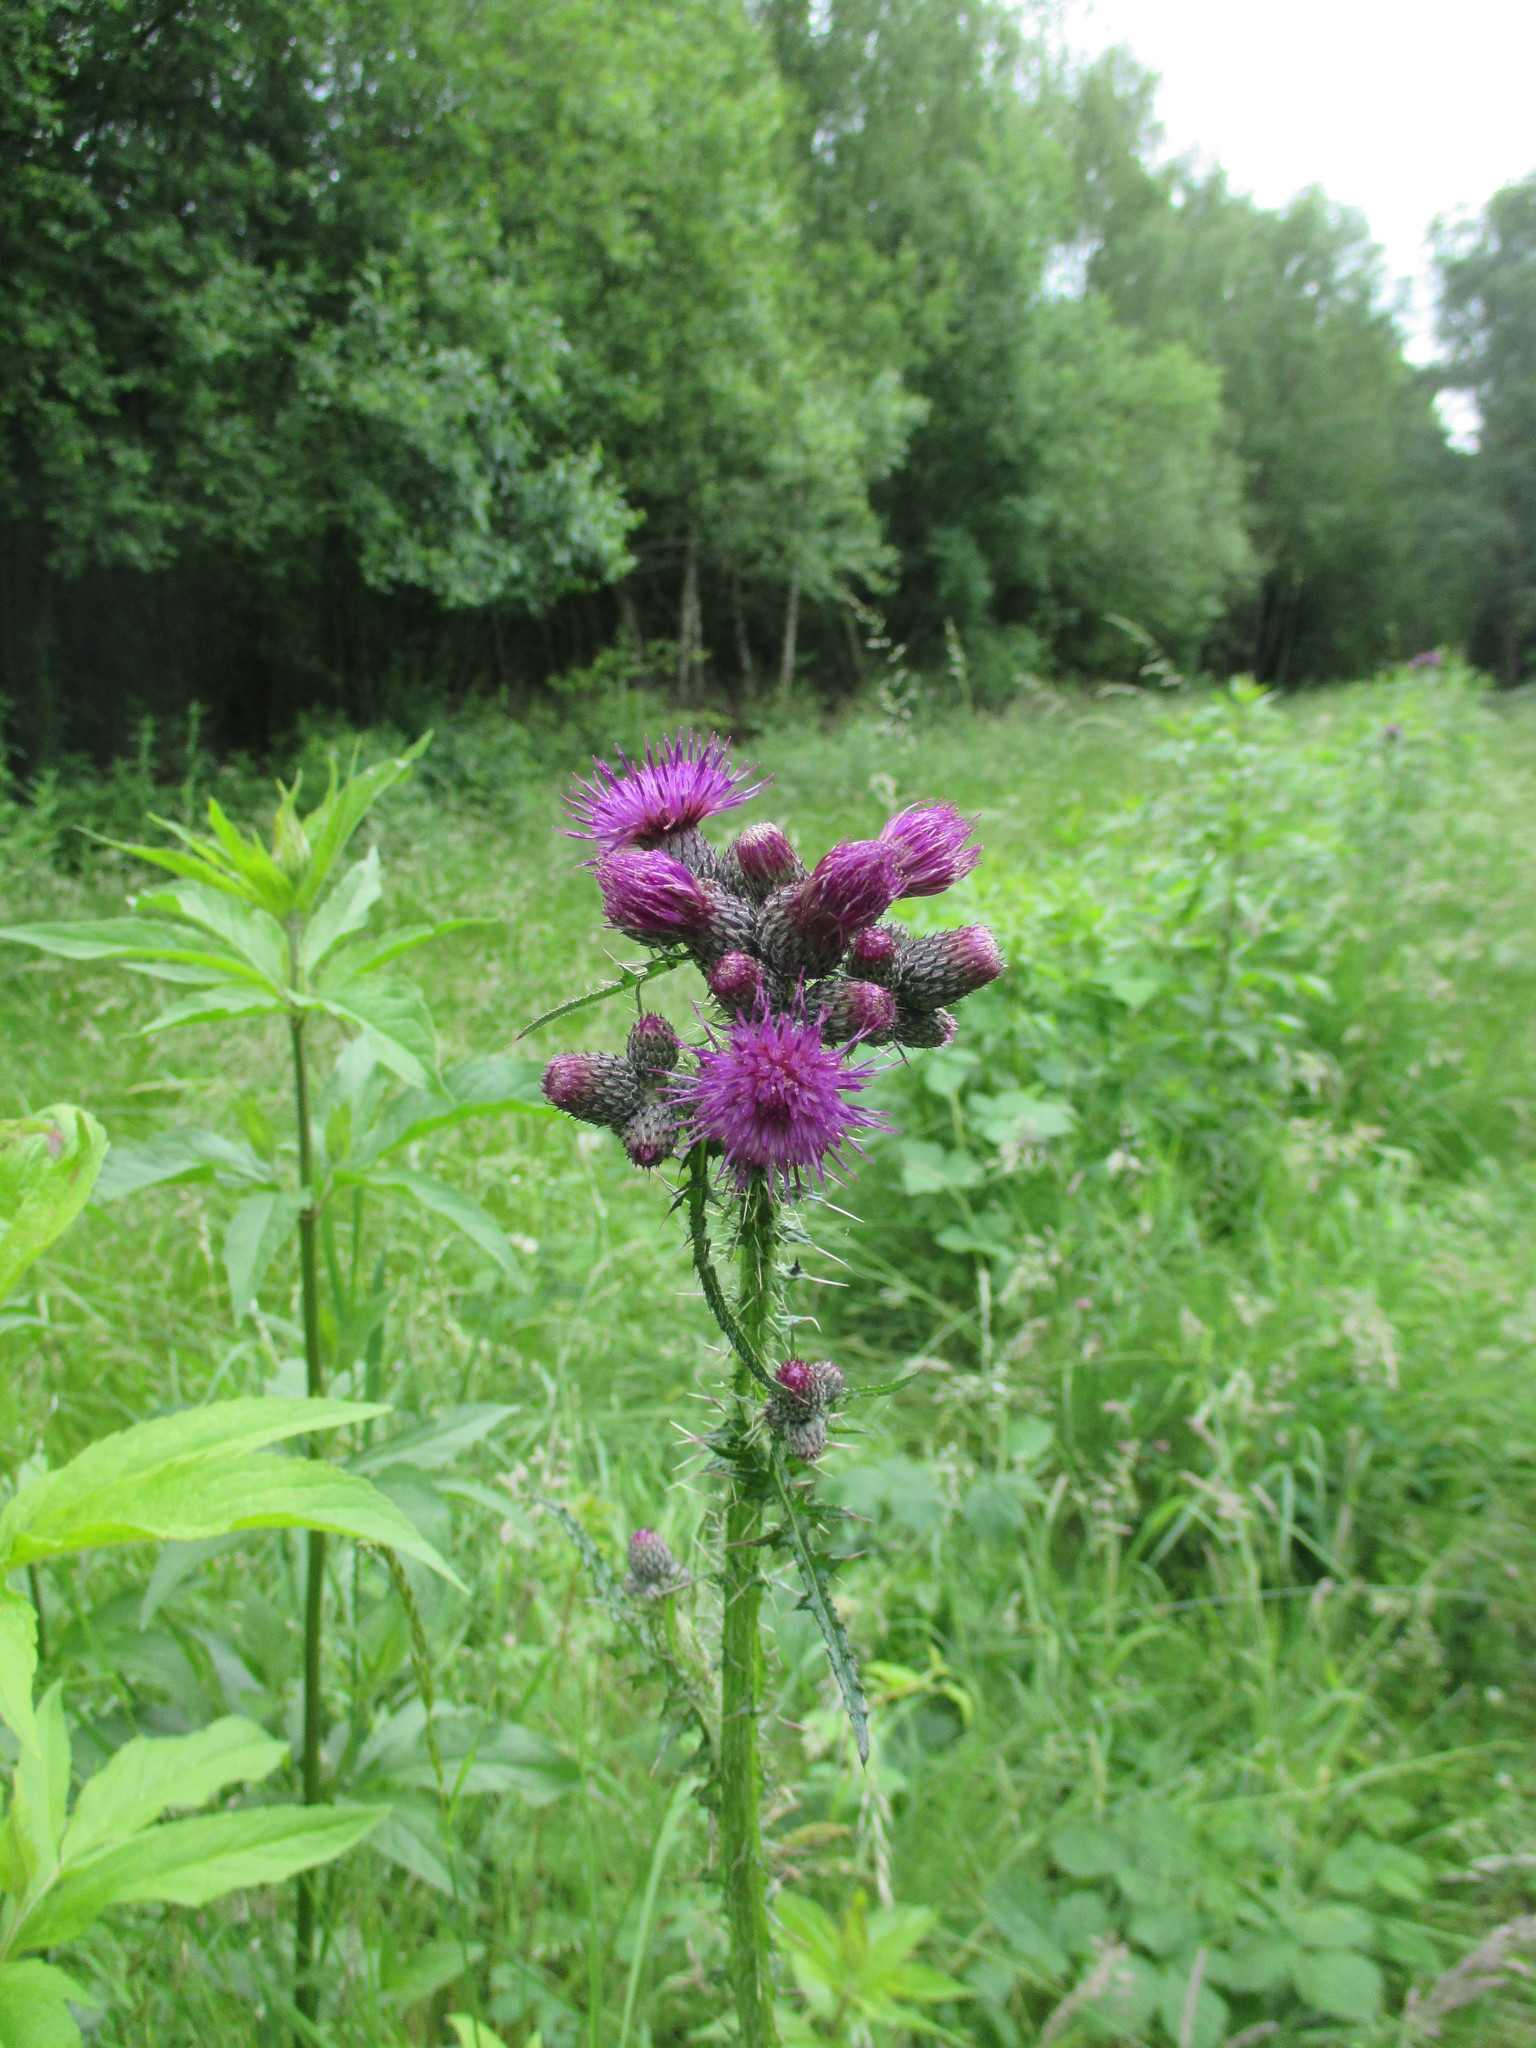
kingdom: Plantae
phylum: Tracheophyta
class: Magnoliopsida
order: Asterales
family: Asteraceae
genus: Cirsium
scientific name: Cirsium palustre
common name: Marsh thistle
